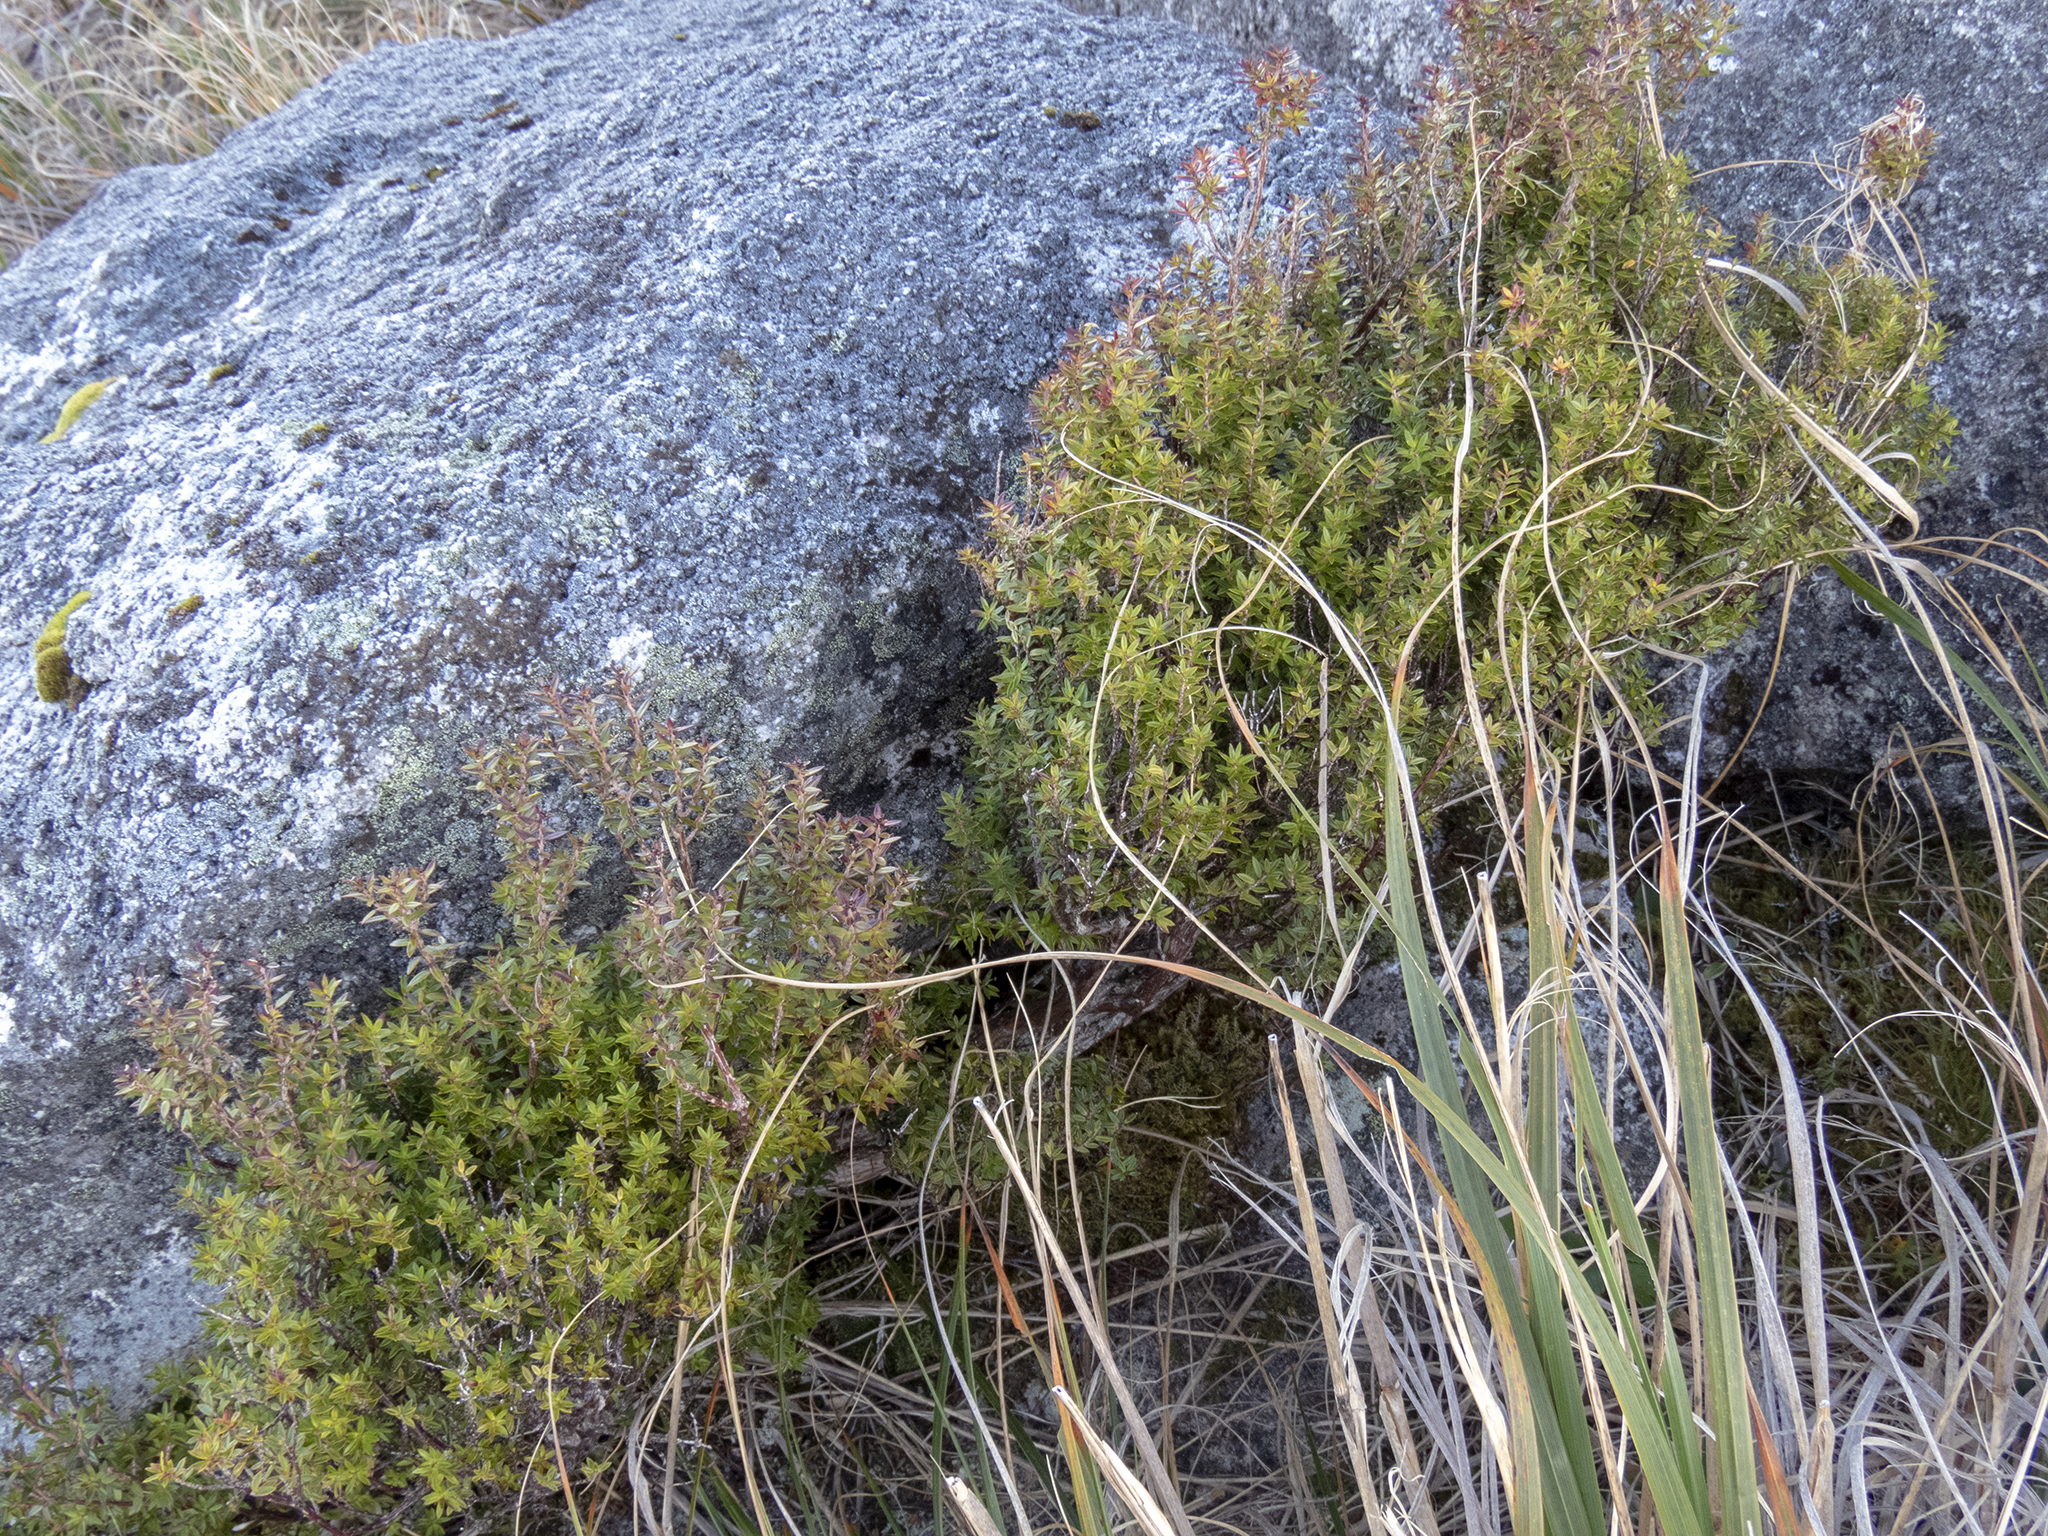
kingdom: Plantae
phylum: Tracheophyta
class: Magnoliopsida
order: Ericales
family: Ericaceae
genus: Archeria
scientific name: Archeria traversii
